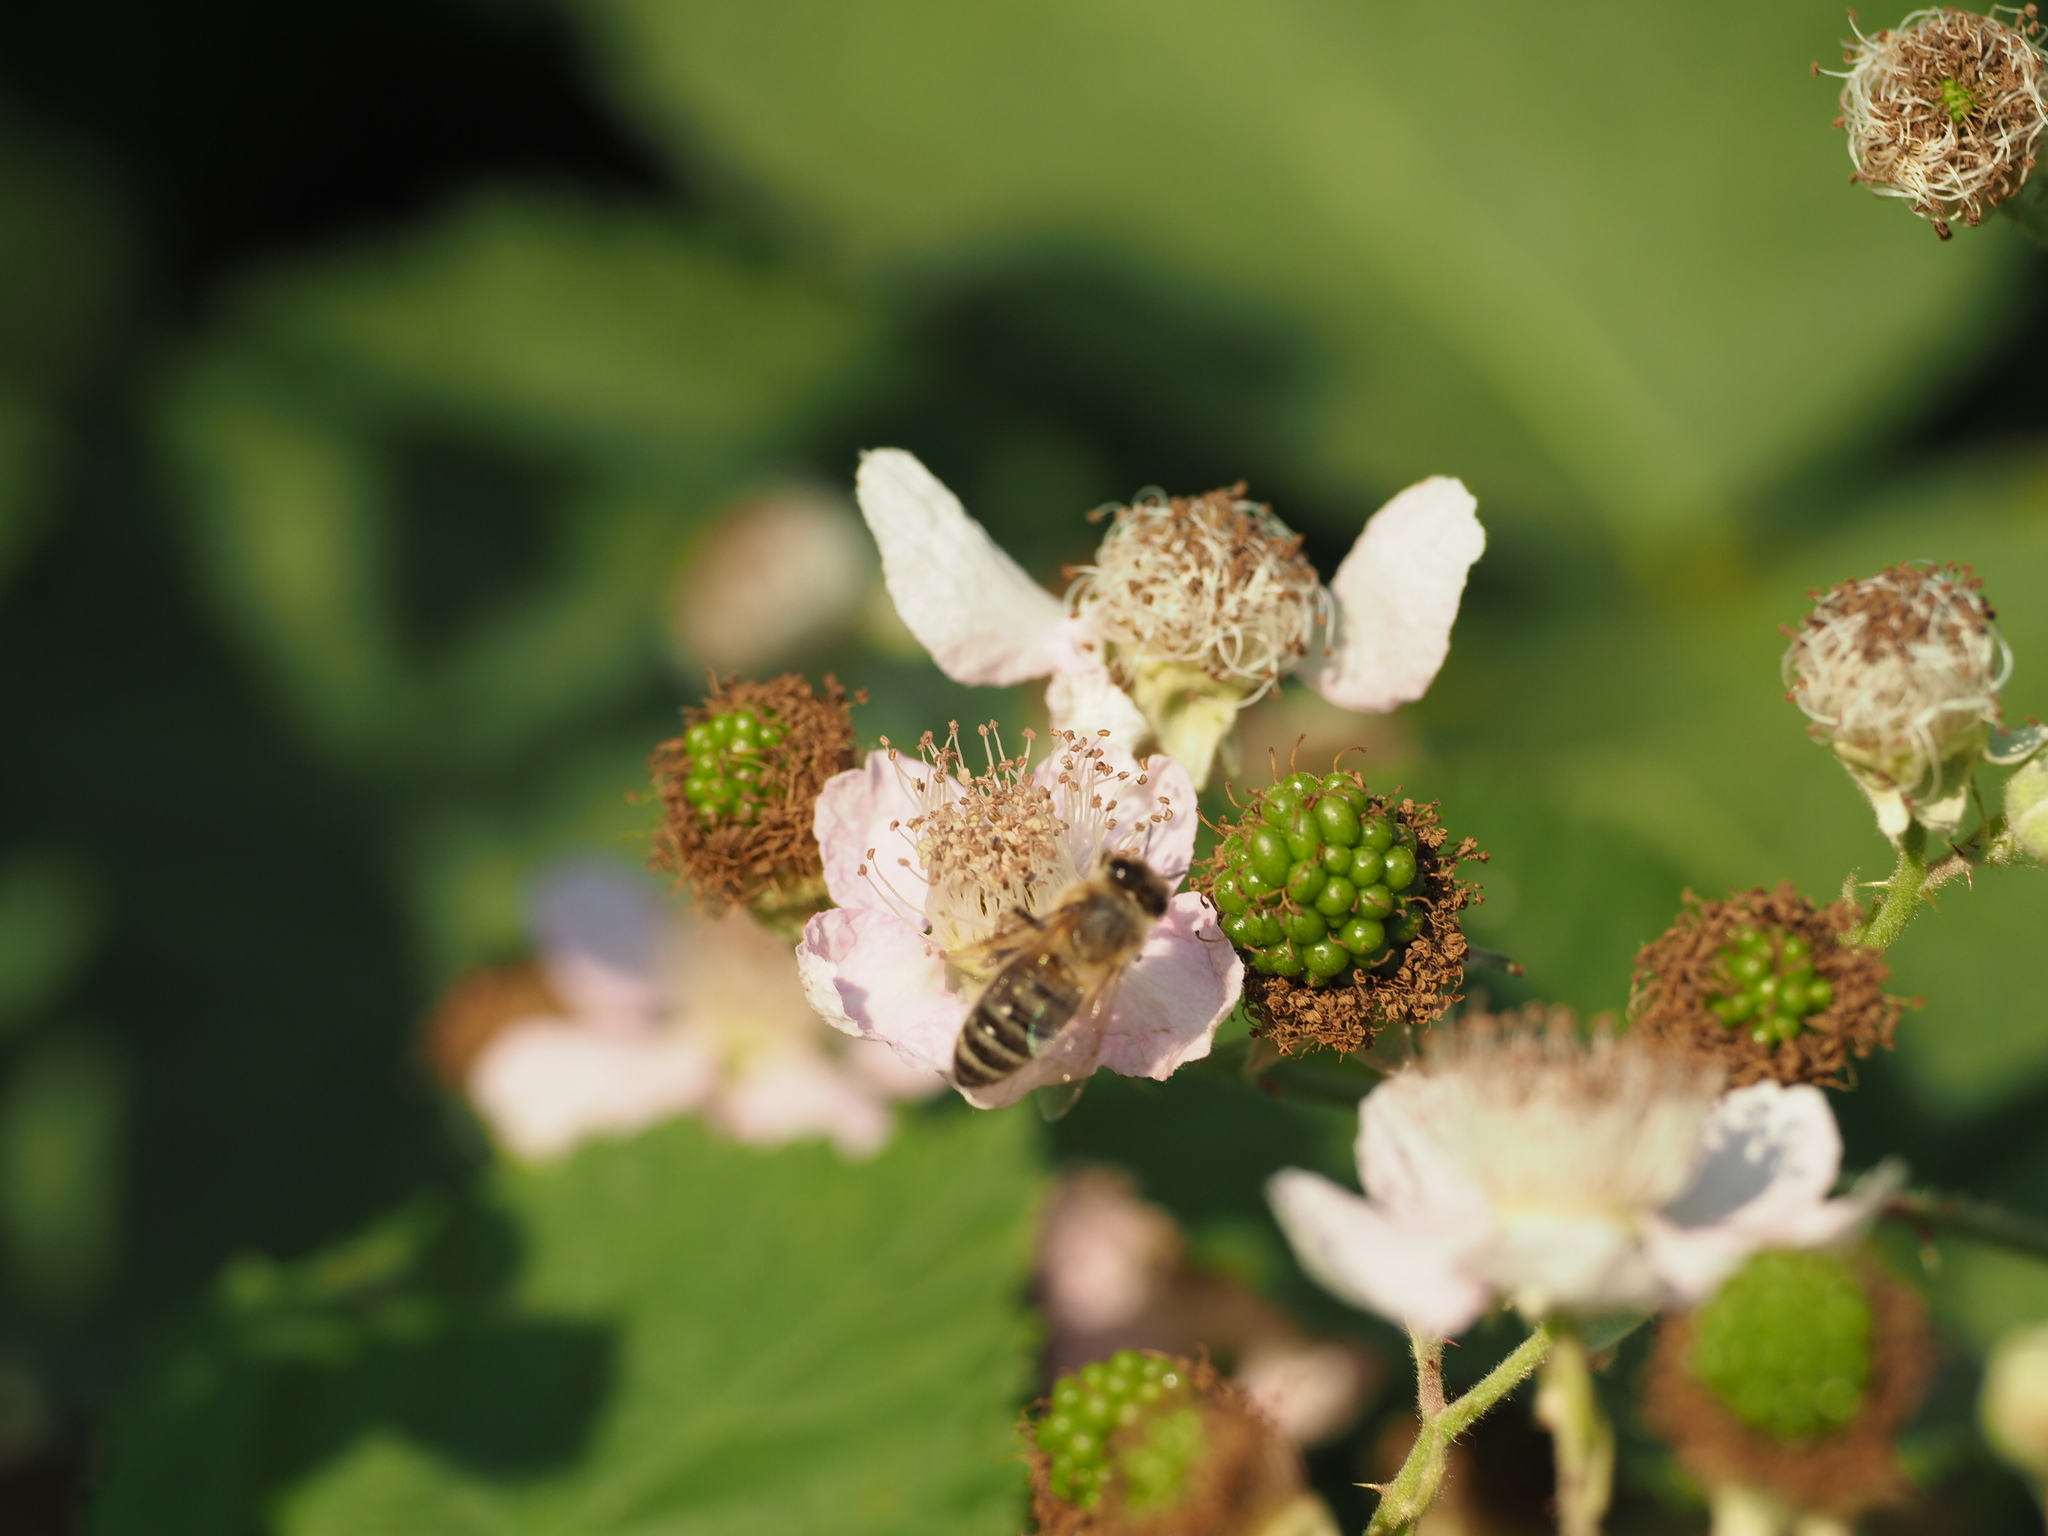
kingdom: Animalia
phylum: Arthropoda
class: Insecta
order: Hymenoptera
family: Apidae
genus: Apis
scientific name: Apis mellifera
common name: Honey bee
